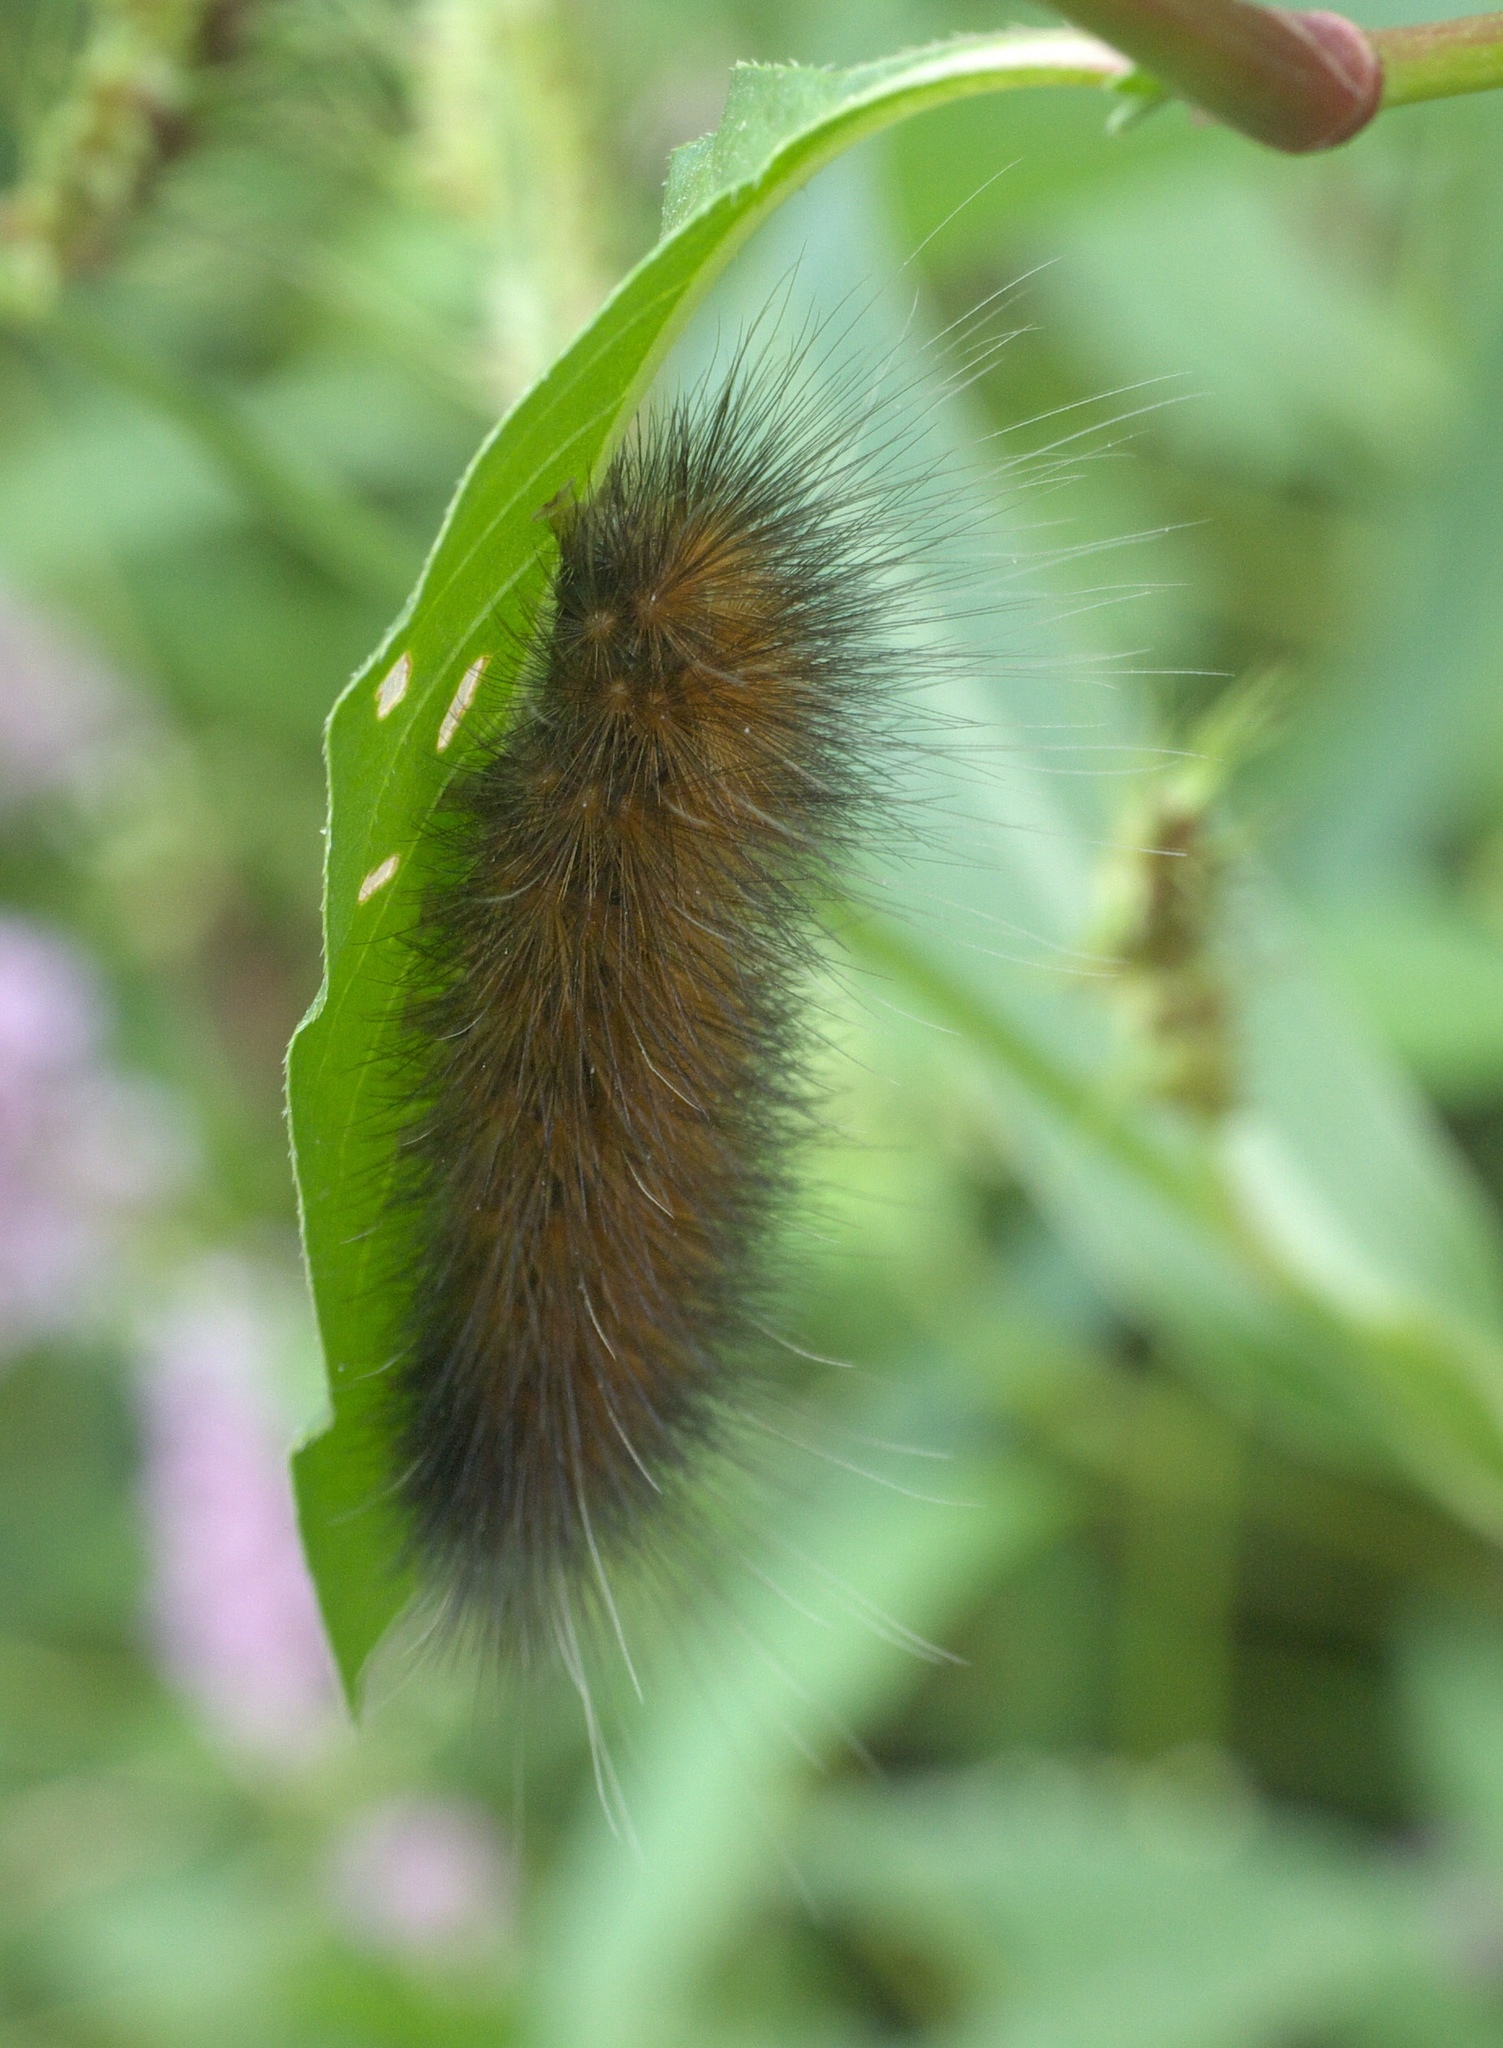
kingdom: Animalia
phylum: Arthropoda
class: Insecta
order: Lepidoptera
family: Erebidae
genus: Spilosoma
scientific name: Spilosoma virginica
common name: Virginia tiger moth
